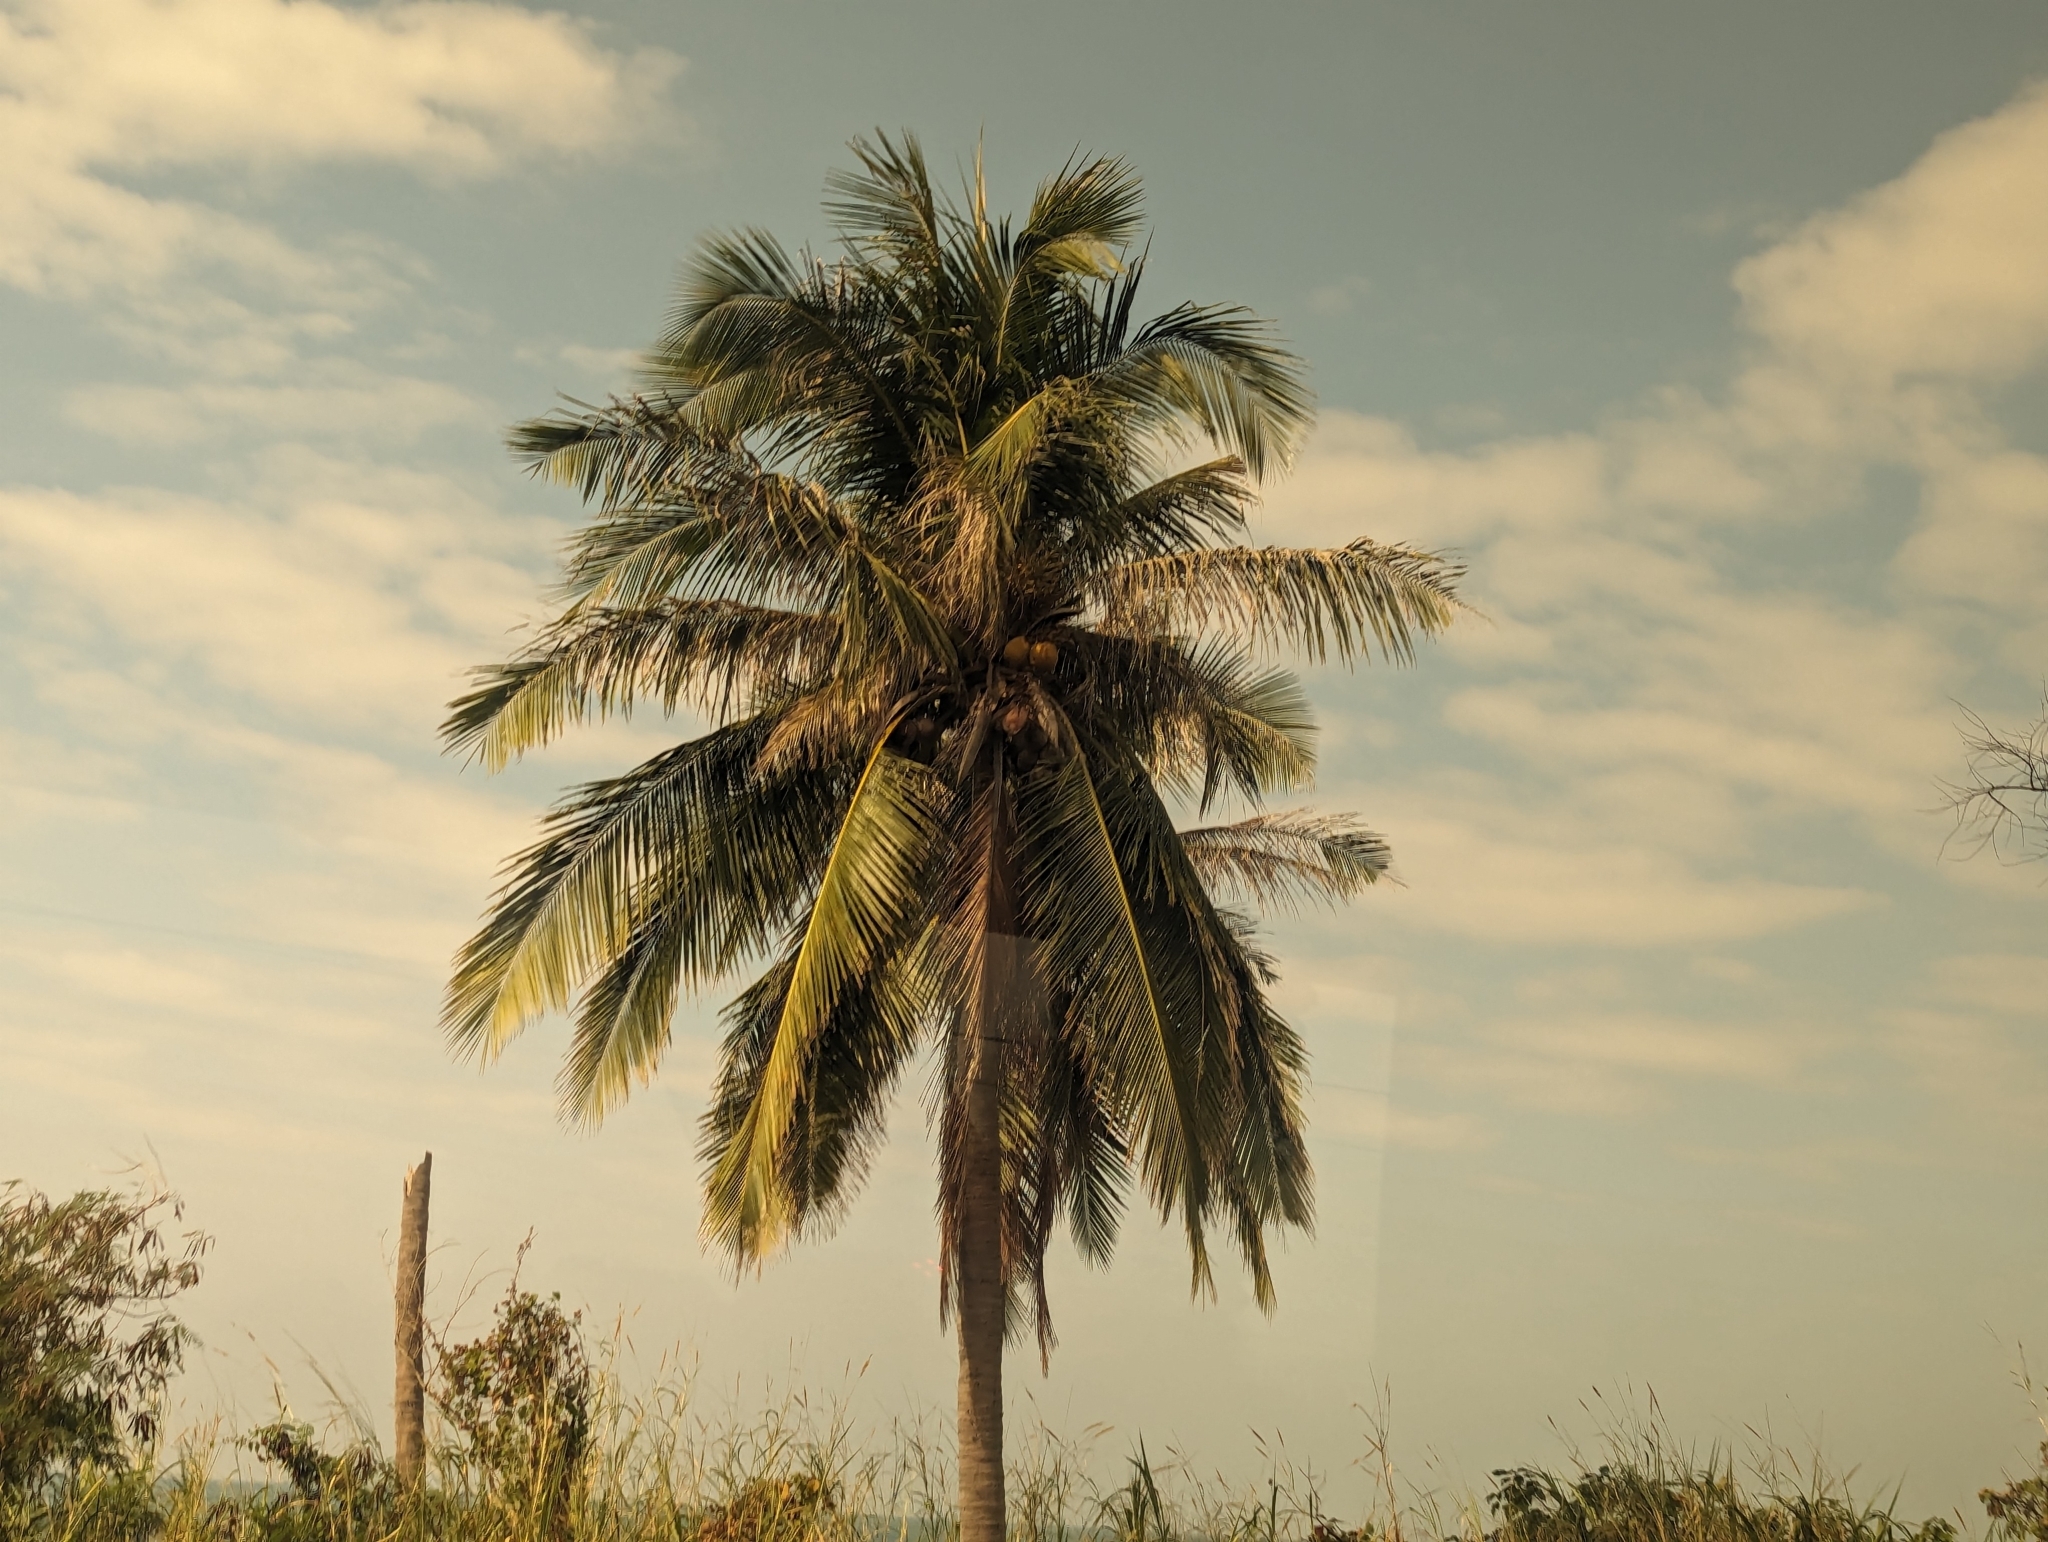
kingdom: Plantae
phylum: Tracheophyta
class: Liliopsida
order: Arecales
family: Arecaceae
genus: Cocos
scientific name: Cocos nucifera
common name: Coconut palm
